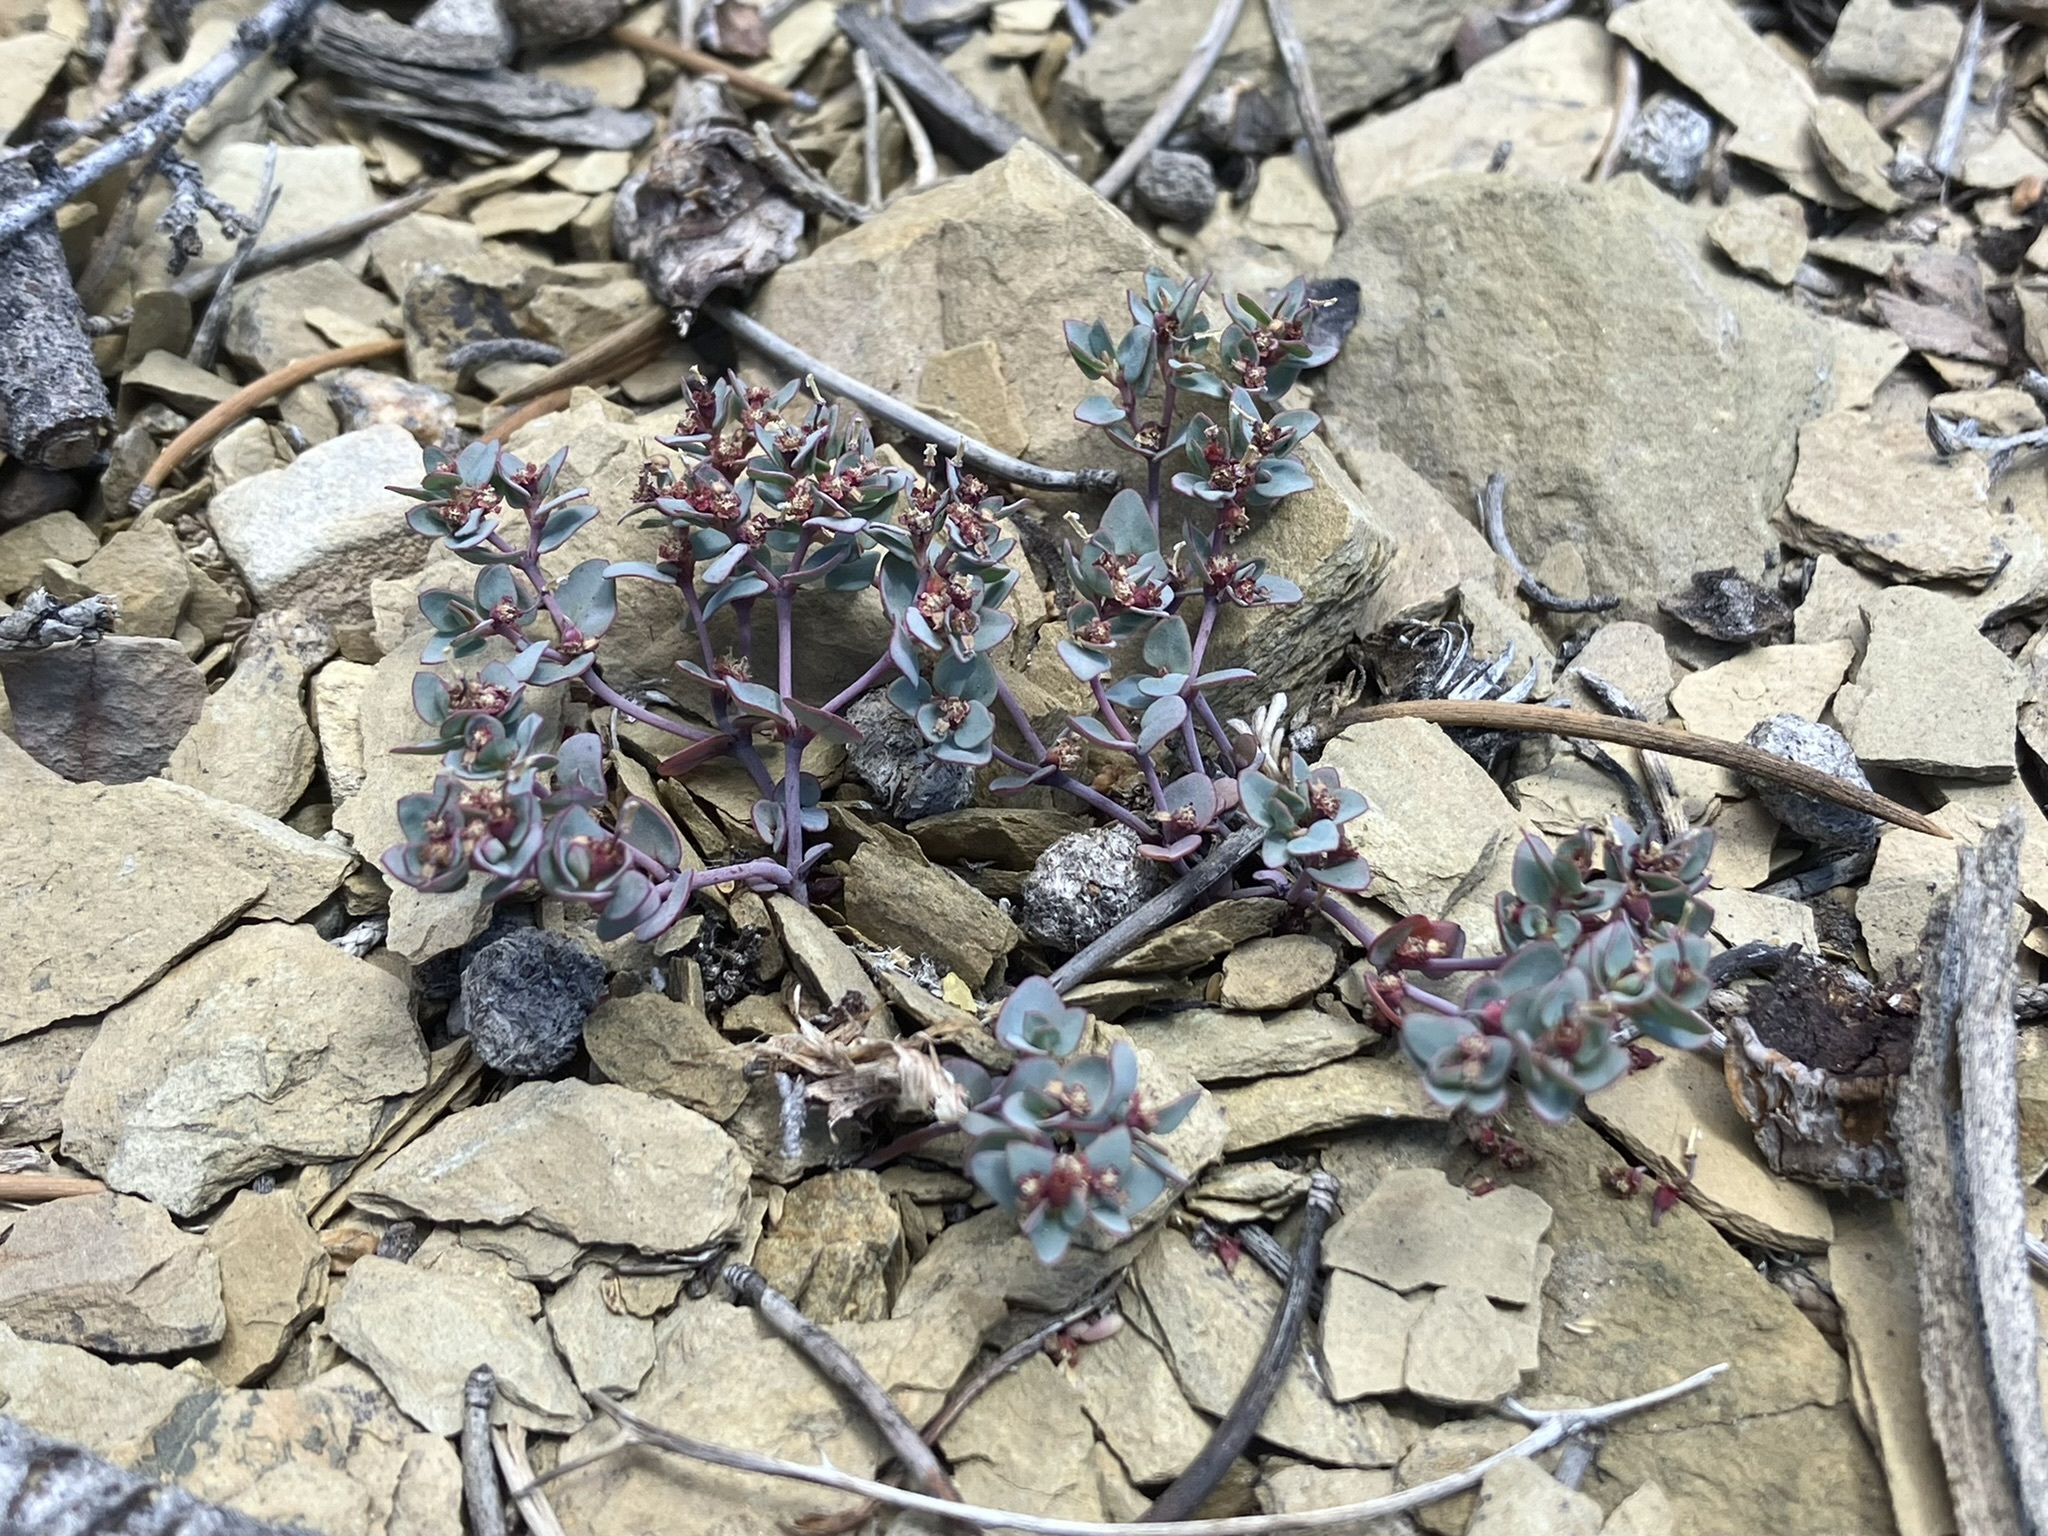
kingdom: Plantae
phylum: Tracheophyta
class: Magnoliopsida
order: Malpighiales
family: Euphorbiaceae
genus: Euphorbia
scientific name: Euphorbia fendleri
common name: Fendler's euphorbia
